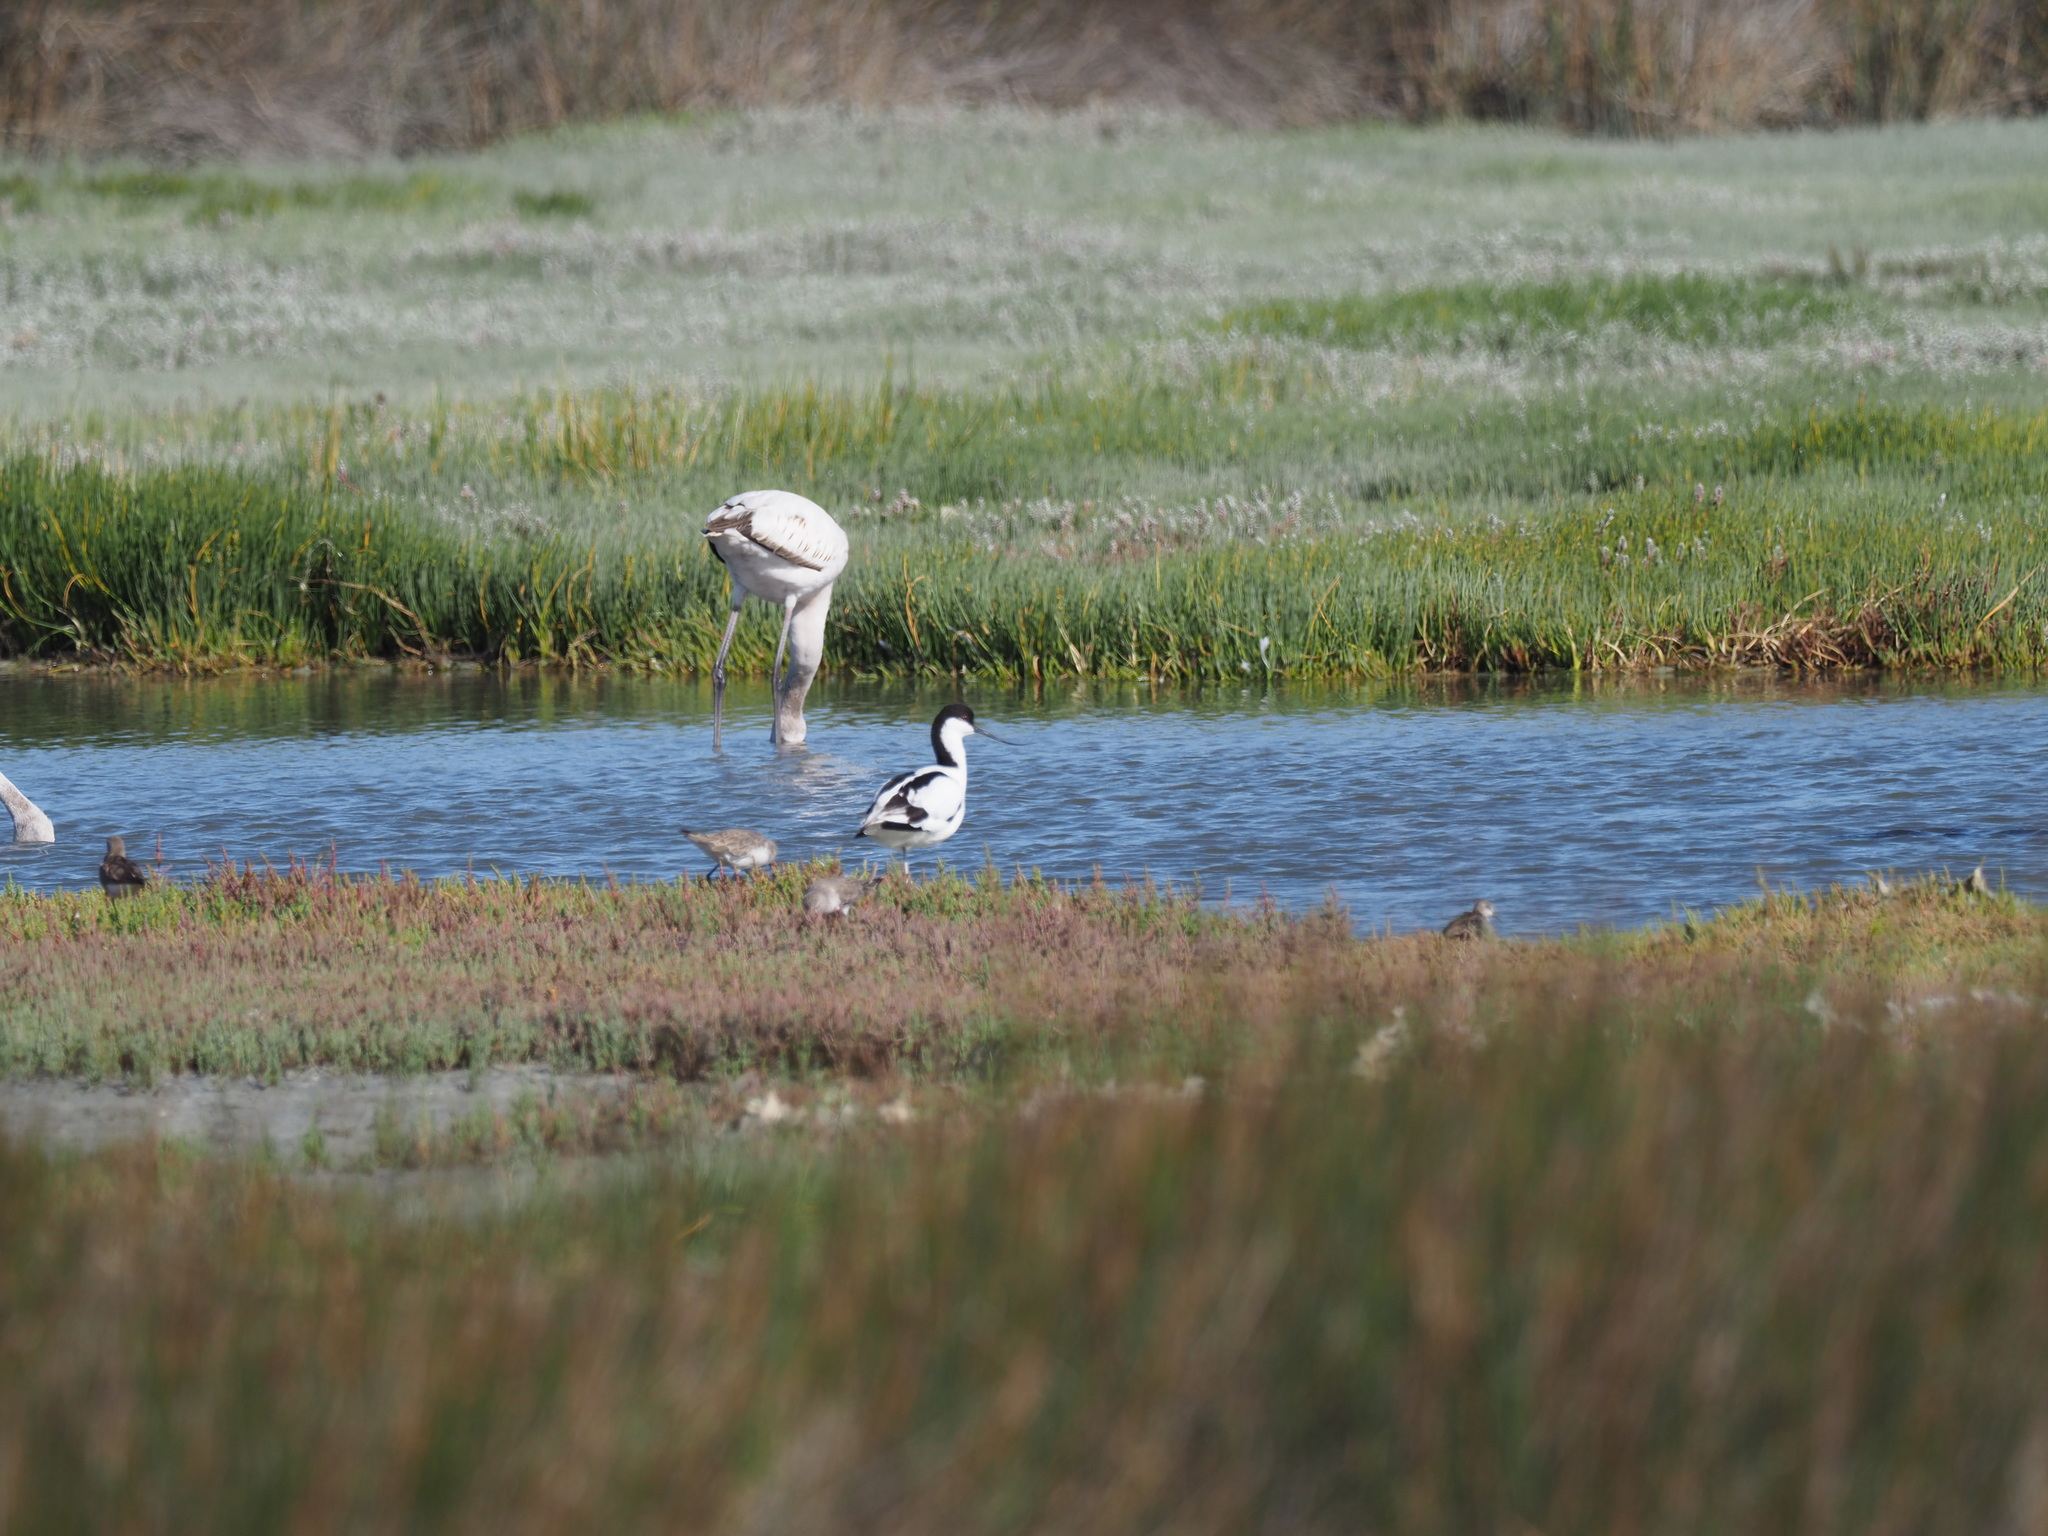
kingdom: Animalia
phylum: Chordata
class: Aves
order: Charadriiformes
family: Recurvirostridae
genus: Recurvirostra
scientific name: Recurvirostra avosetta
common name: Pied avocet
